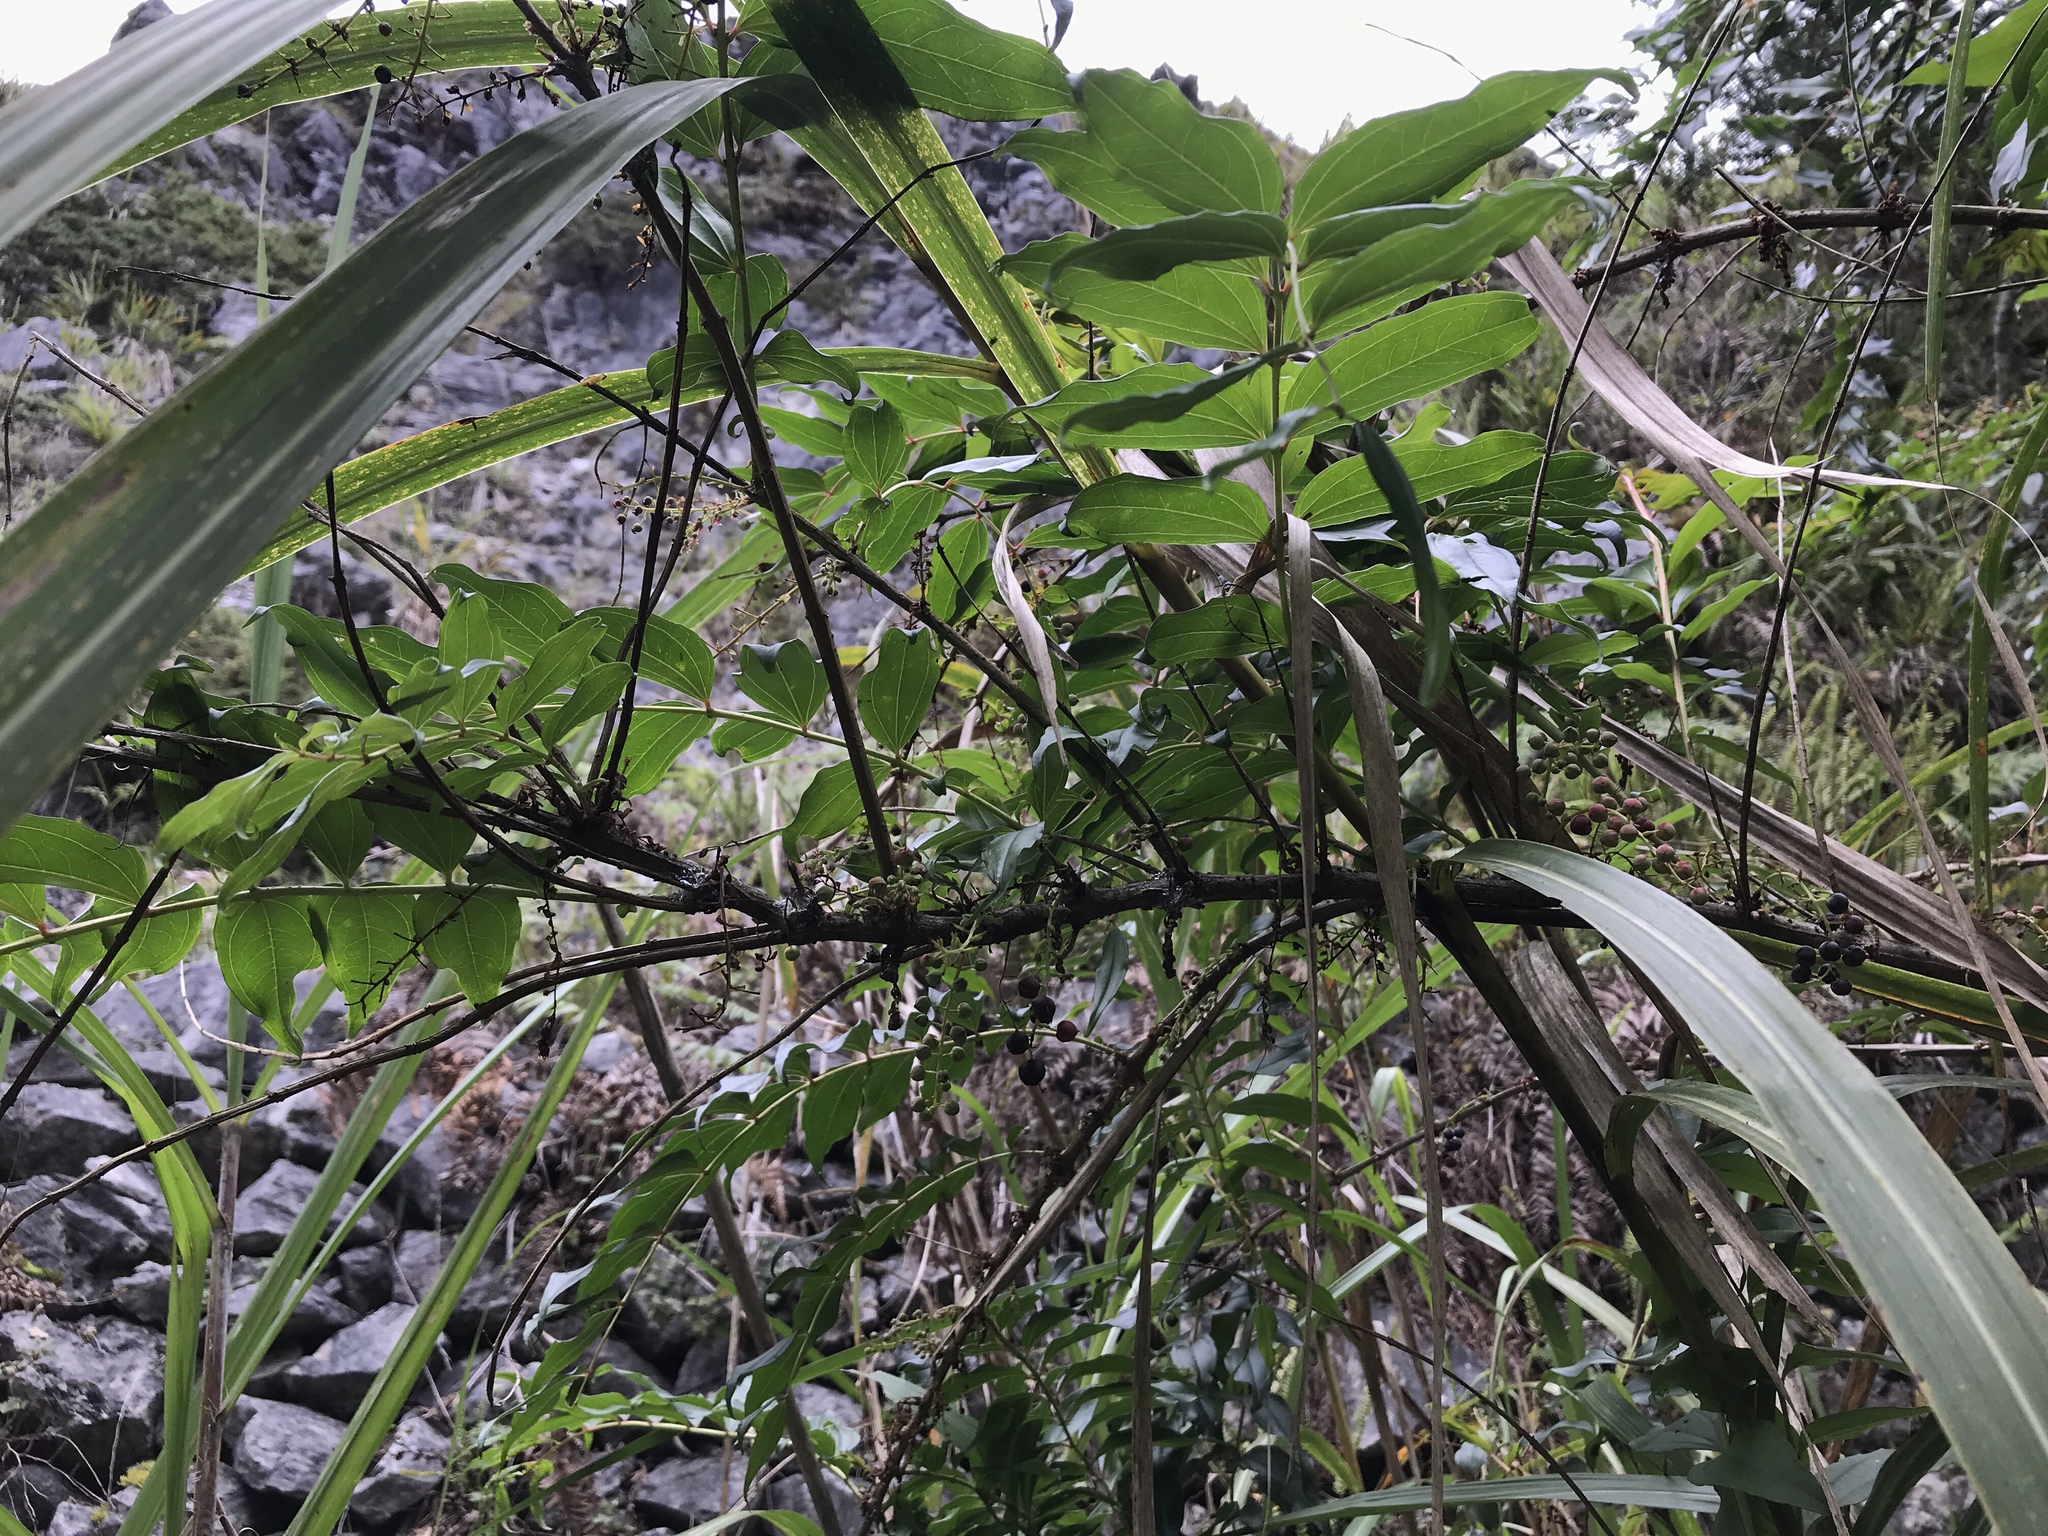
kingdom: Plantae
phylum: Tracheophyta
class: Magnoliopsida
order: Cucurbitales
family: Coriariaceae
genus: Coriaria
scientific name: Coriaria japonica
